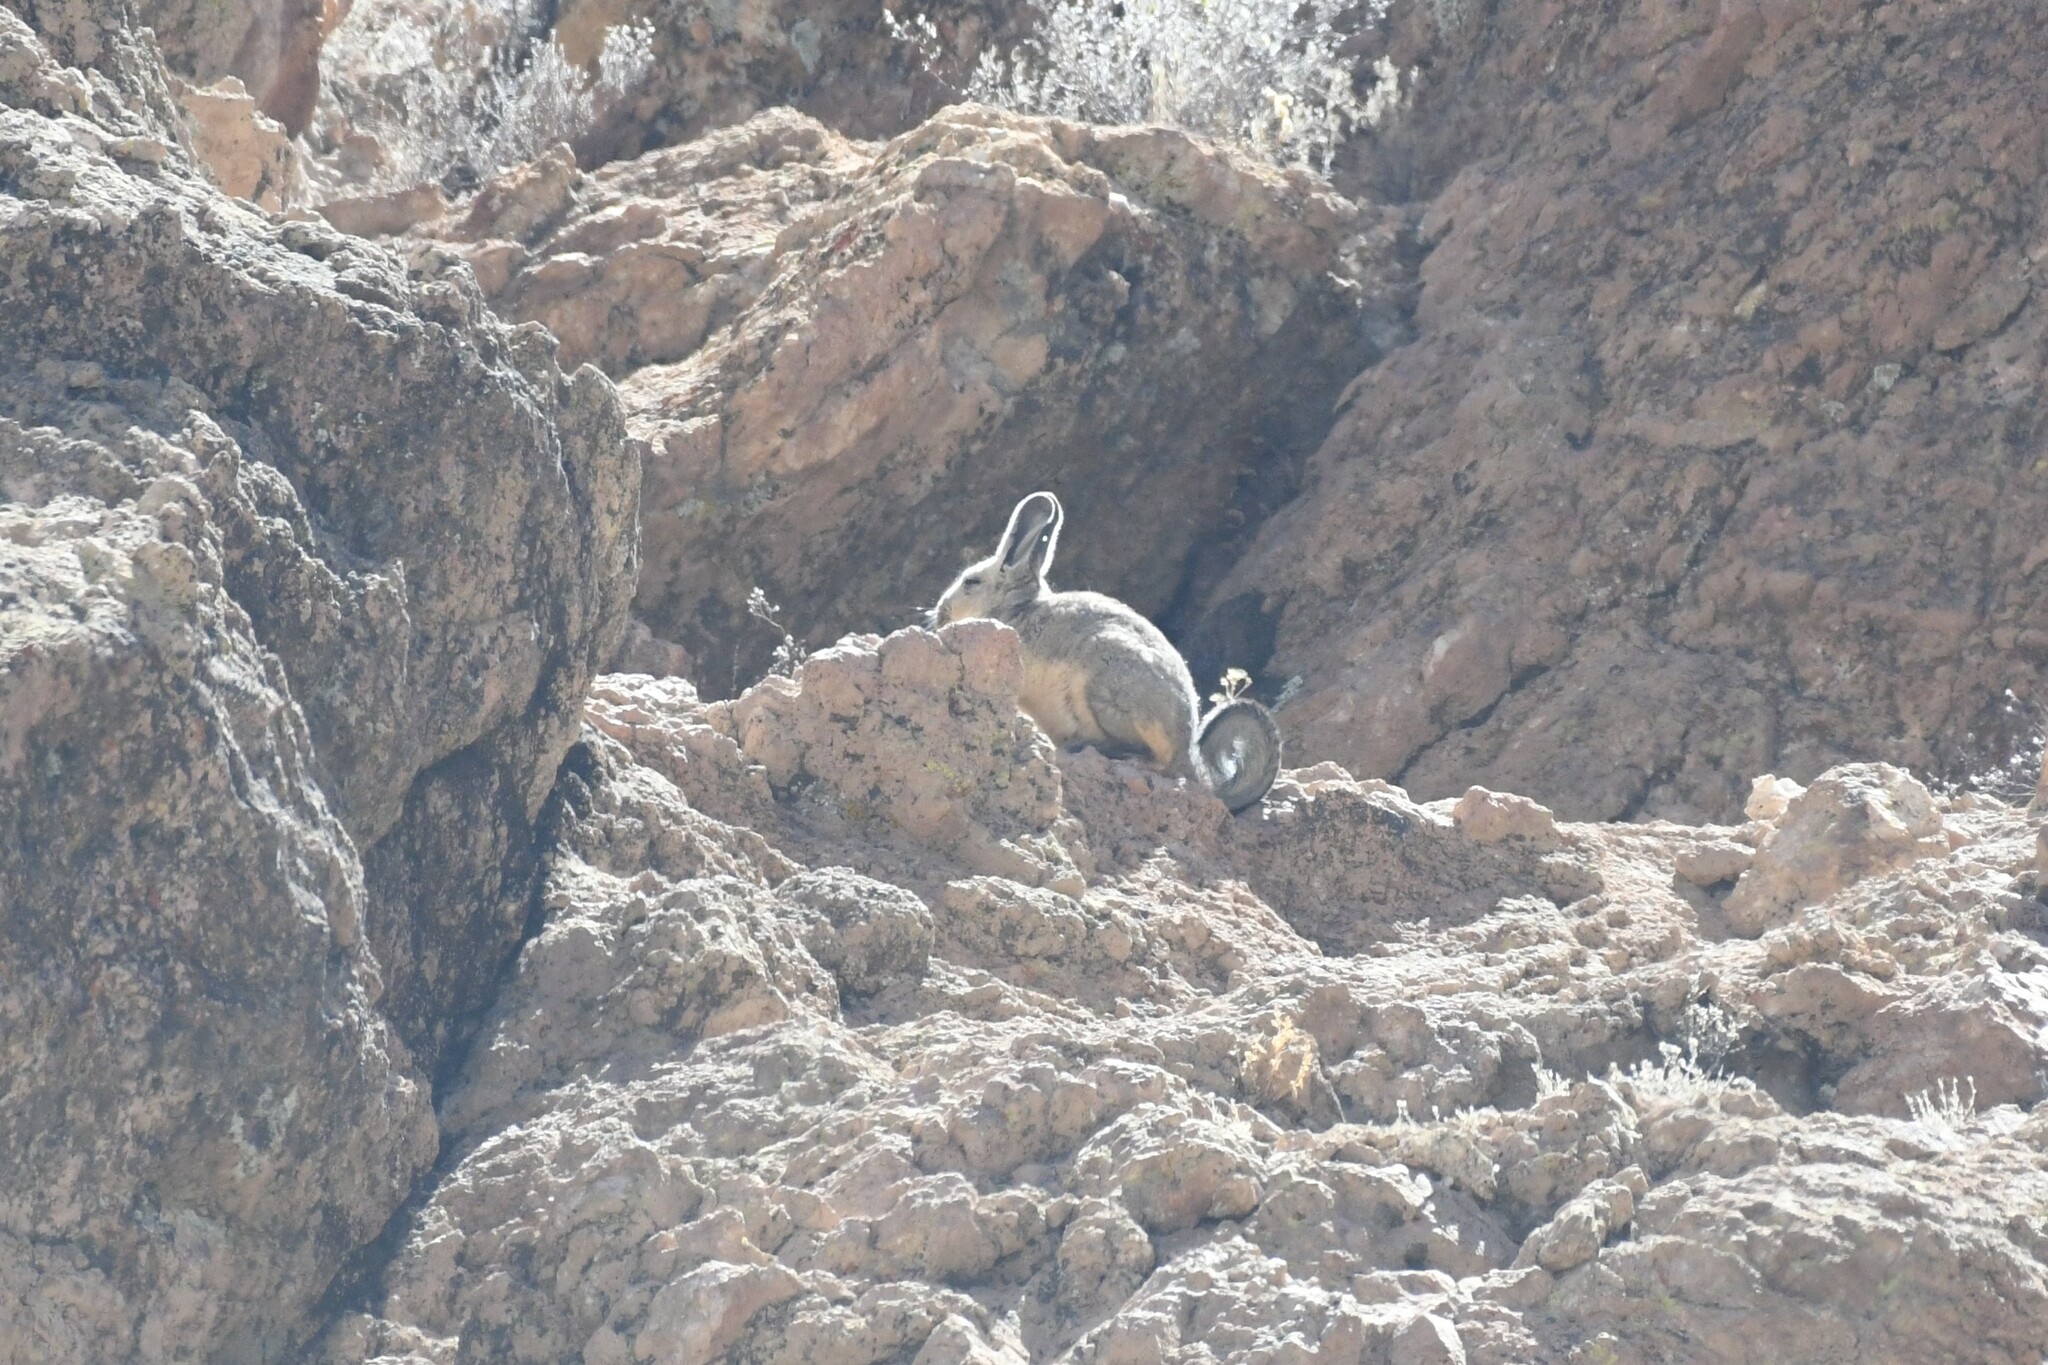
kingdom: Animalia
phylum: Chordata
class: Mammalia
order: Rodentia
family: Chinchillidae
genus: Lagidium
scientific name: Lagidium viscacia
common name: Southern viscacha
